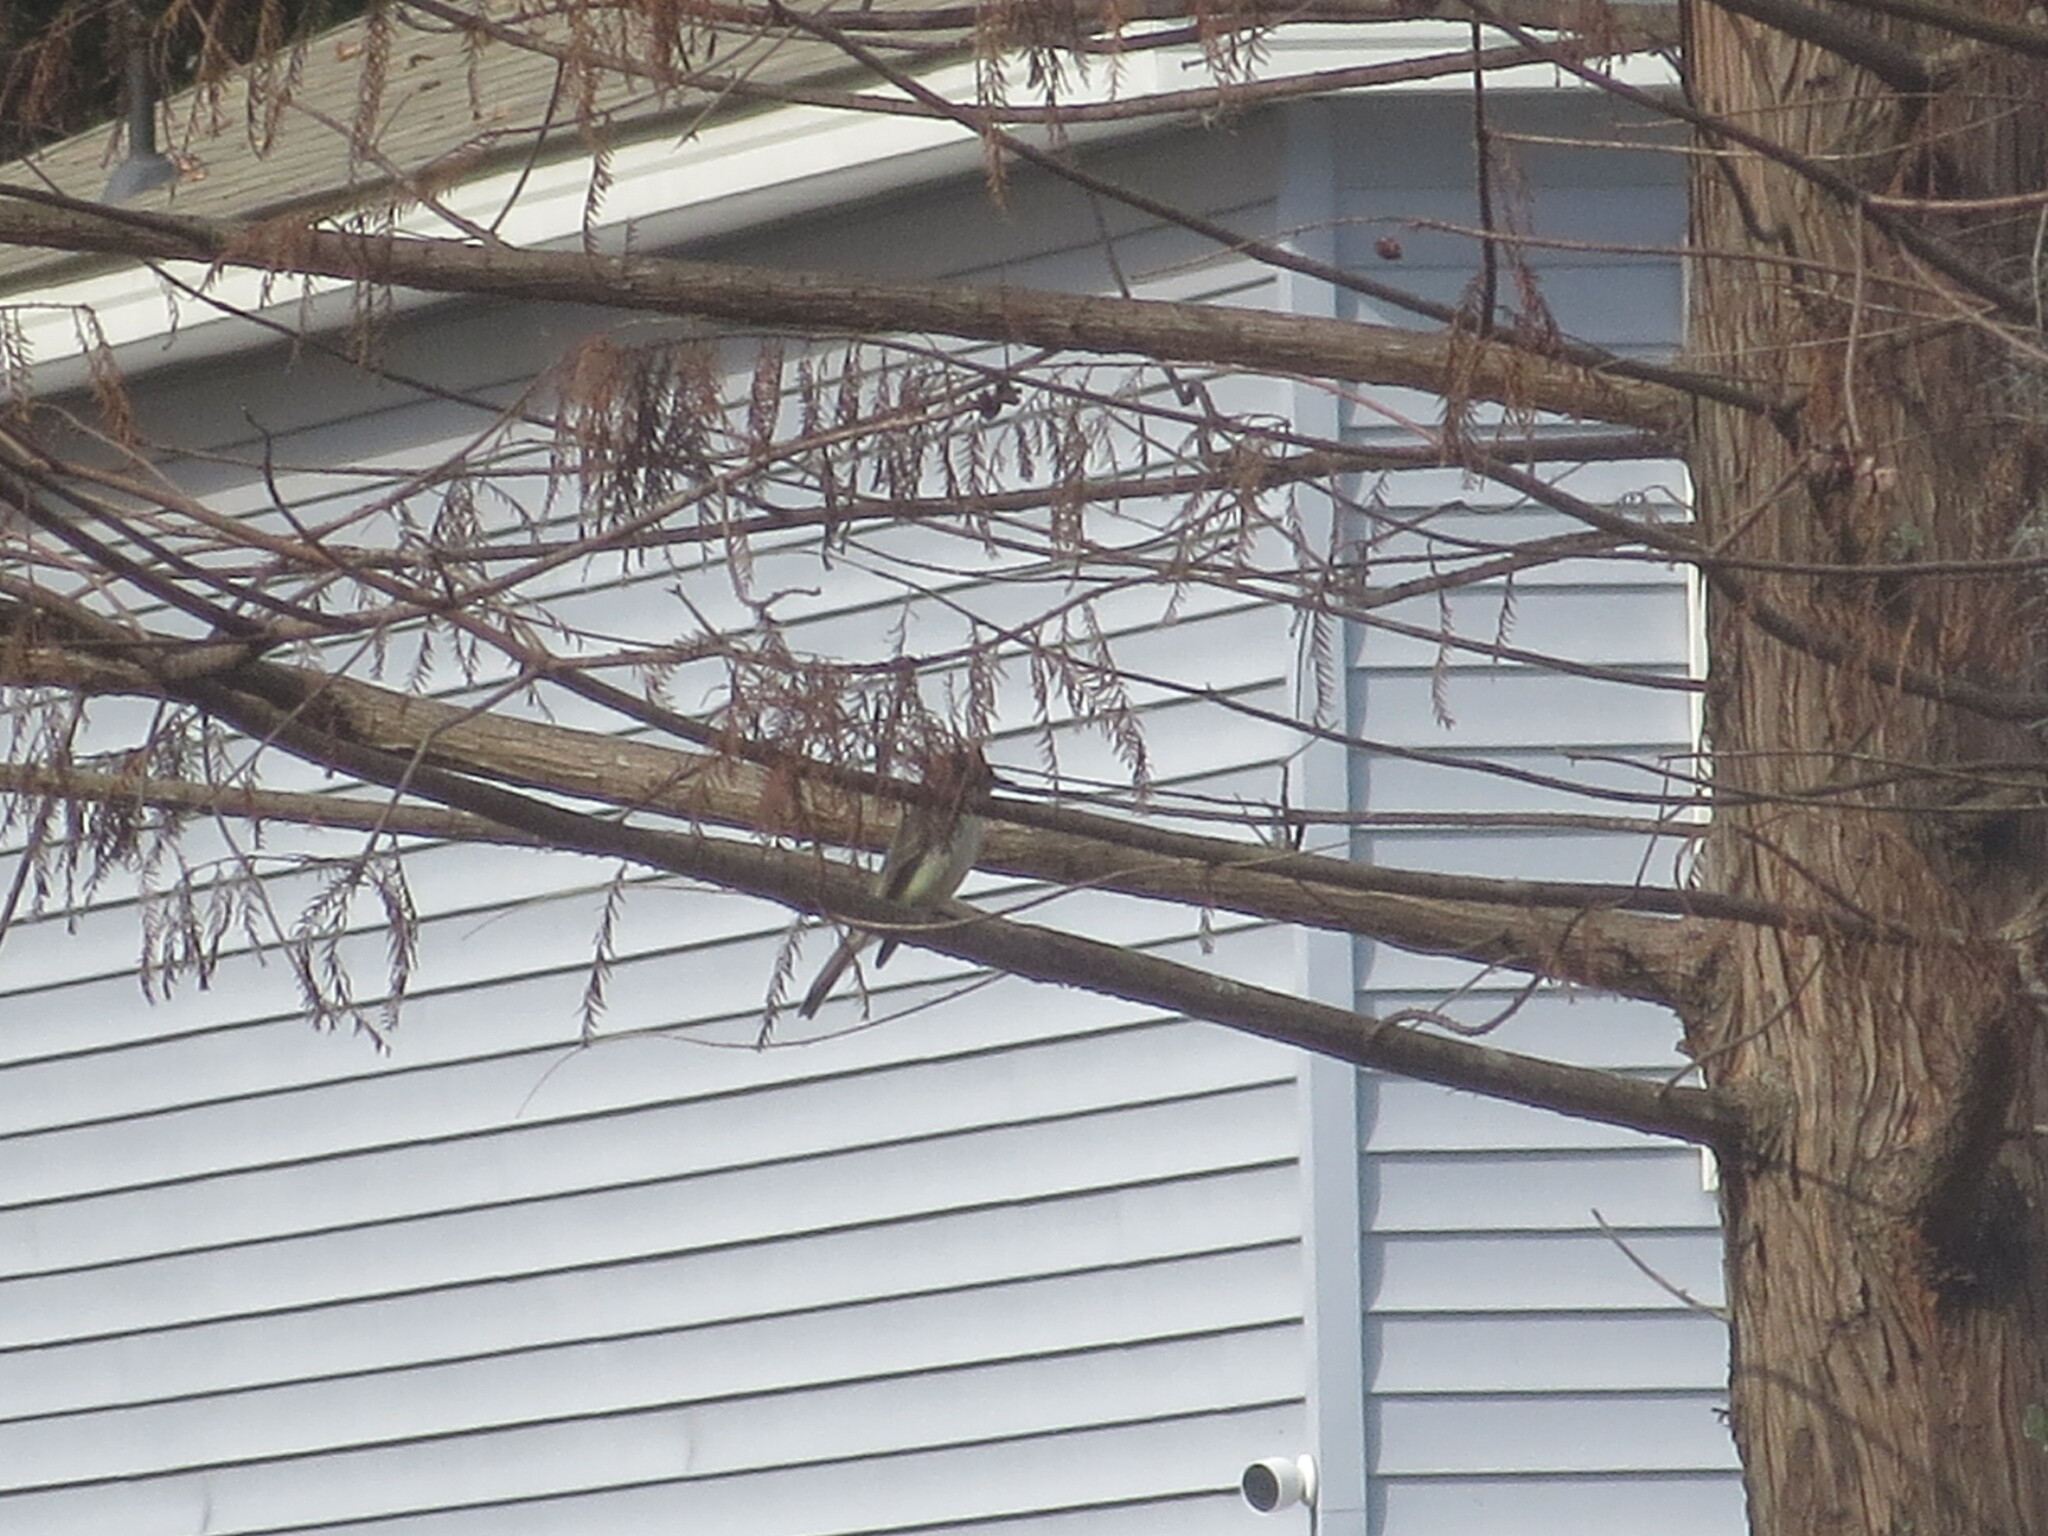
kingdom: Animalia
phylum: Chordata
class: Aves
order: Passeriformes
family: Tyrannidae
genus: Sayornis
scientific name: Sayornis phoebe
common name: Eastern phoebe
